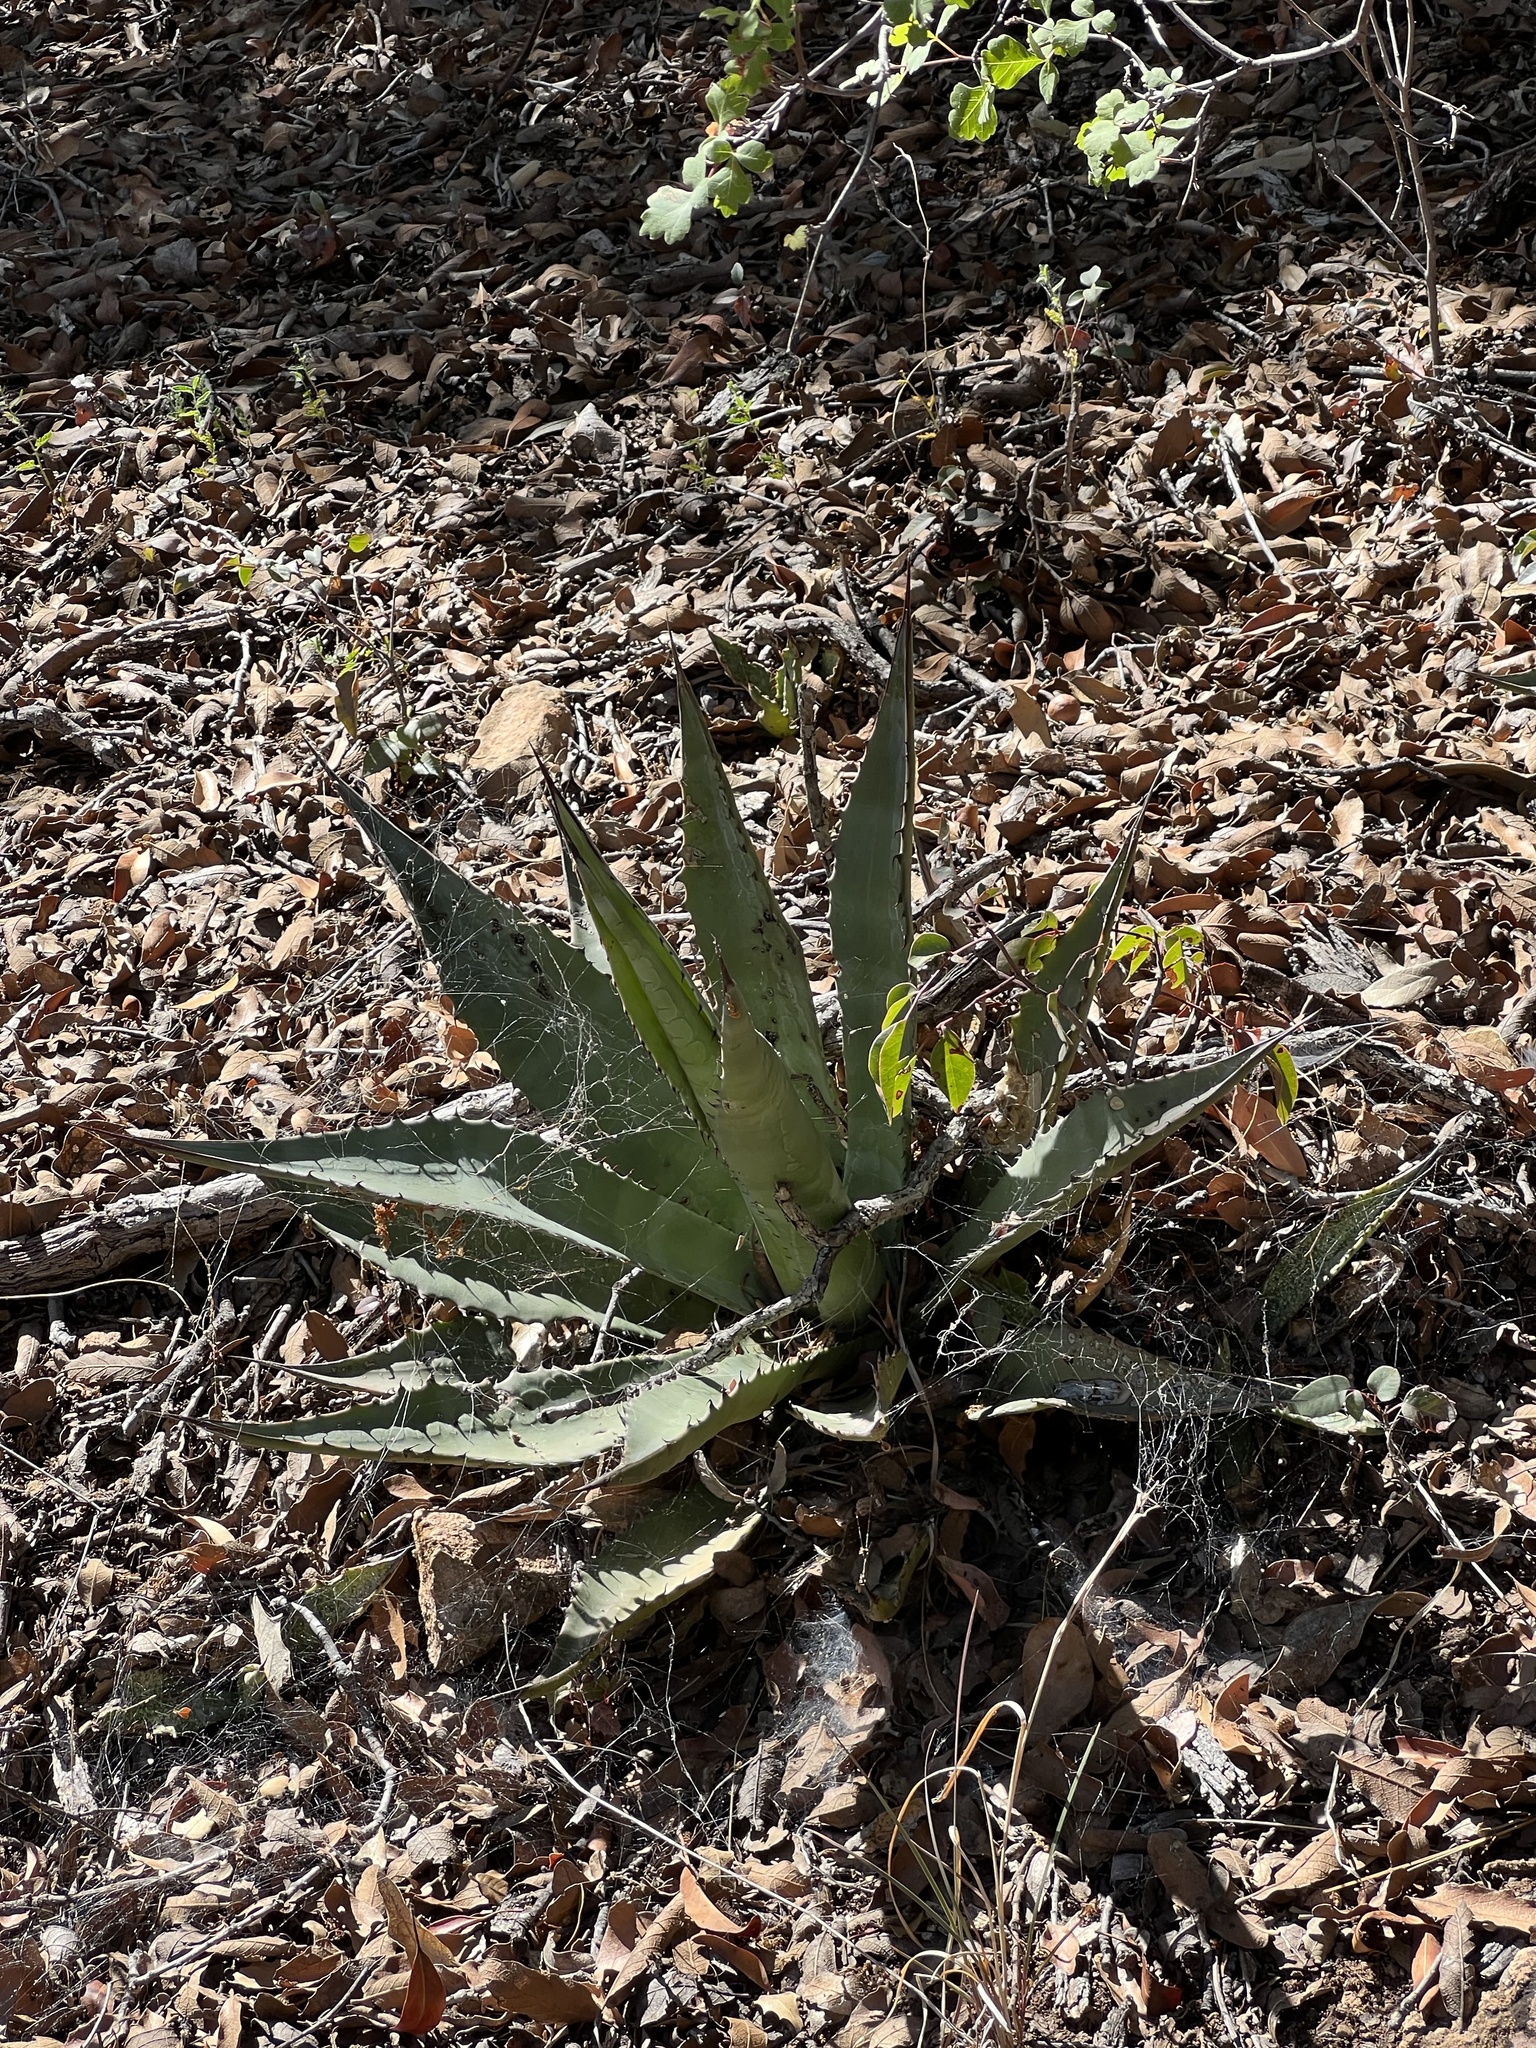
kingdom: Plantae
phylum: Tracheophyta
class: Liliopsida
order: Asparagales
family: Asparagaceae
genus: Agave
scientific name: Agave palmeri
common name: Palmer agave
